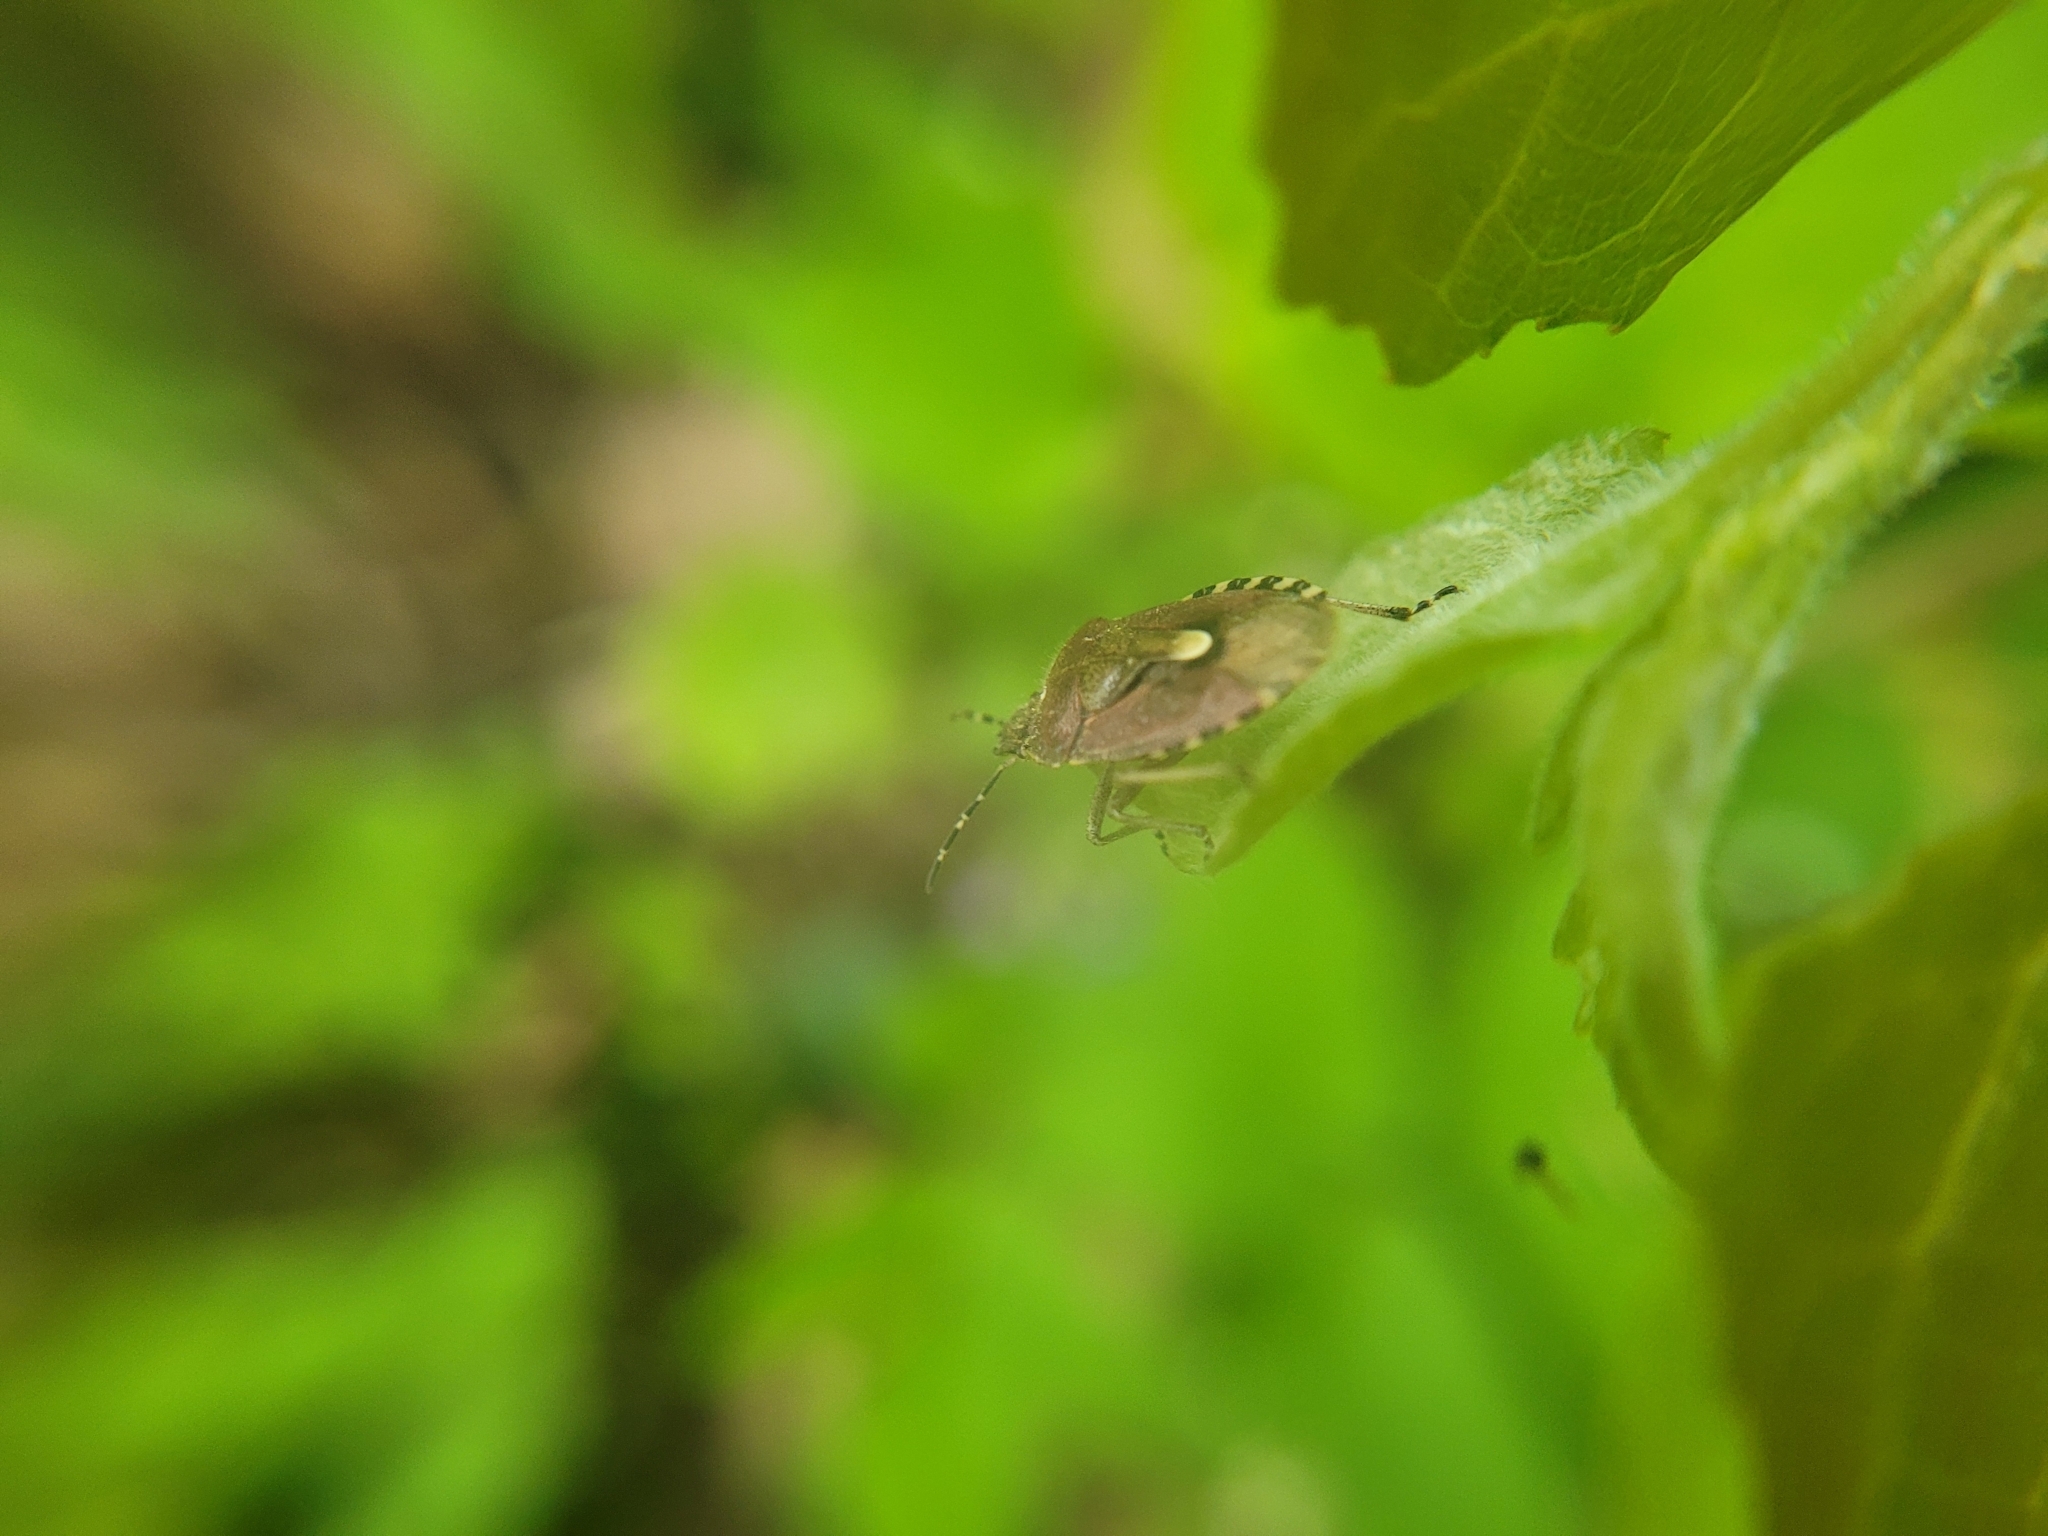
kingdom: Animalia
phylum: Arthropoda
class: Insecta
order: Hemiptera
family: Pentatomidae
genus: Dolycoris
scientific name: Dolycoris baccarum
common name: Sloe bug
